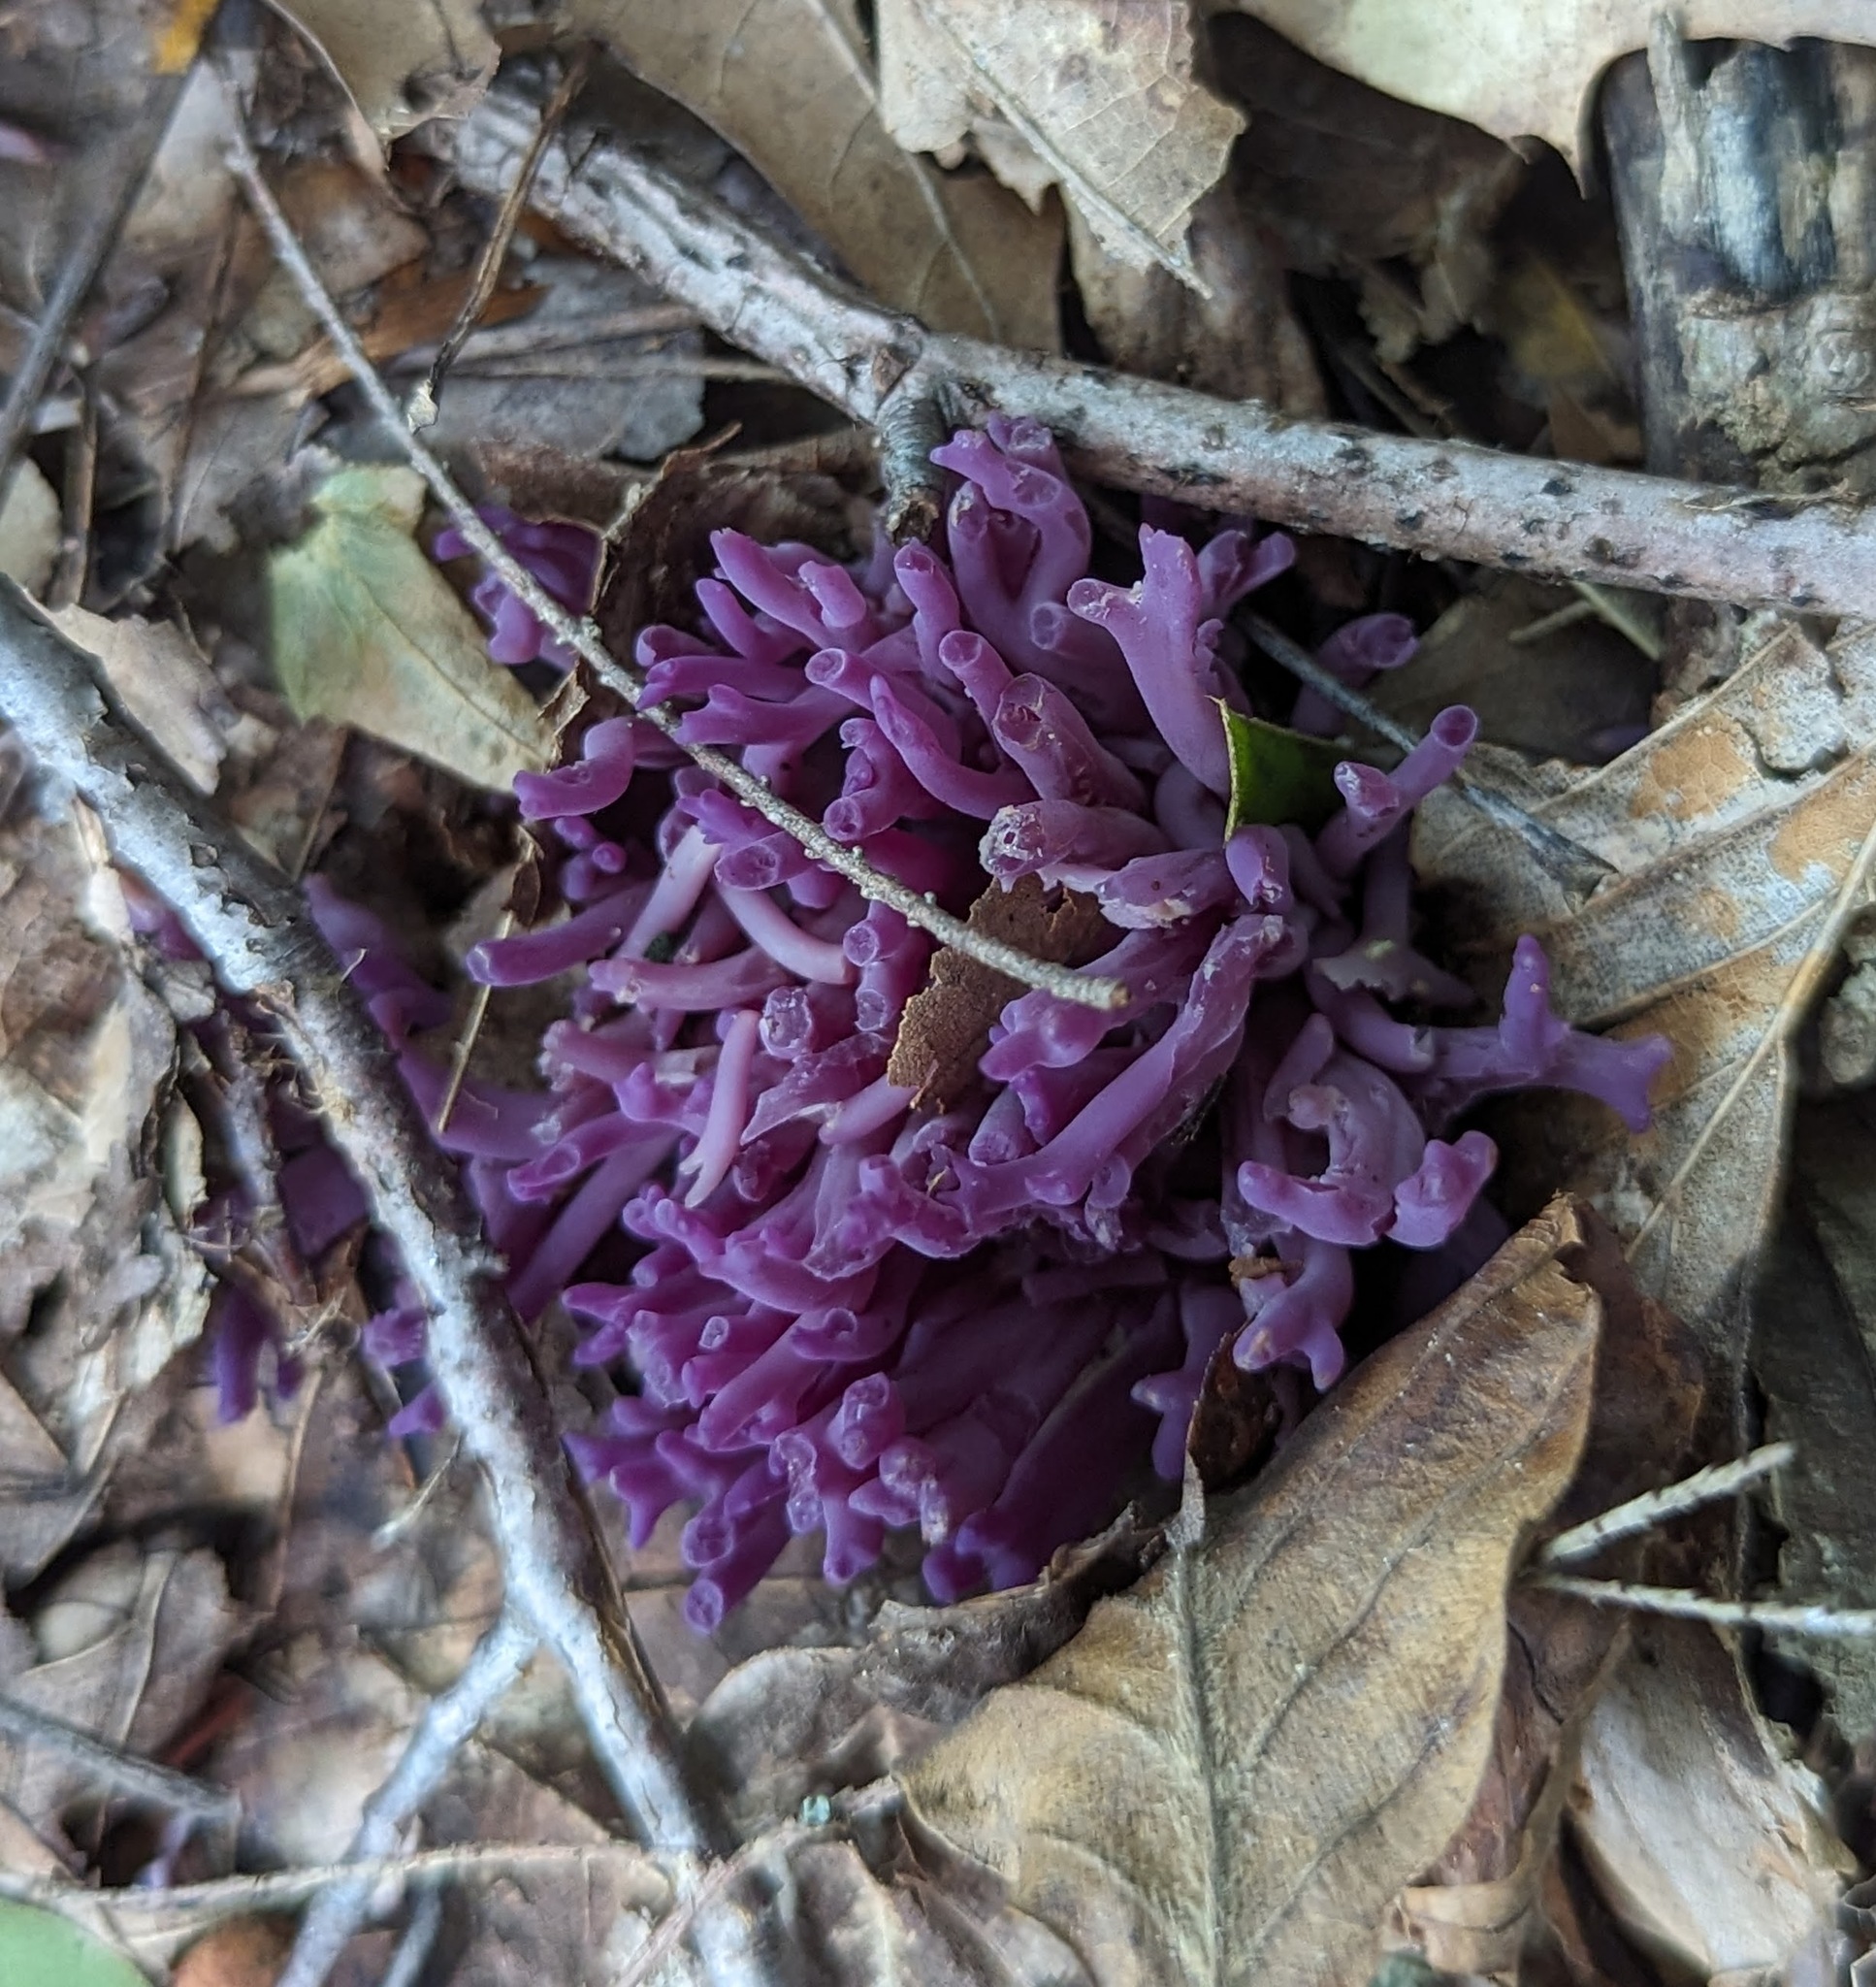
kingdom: Fungi
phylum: Basidiomycota
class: Agaricomycetes
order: Agaricales
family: Clavariaceae
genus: Clavaria
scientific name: Clavaria zollingeri
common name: Violet coral
